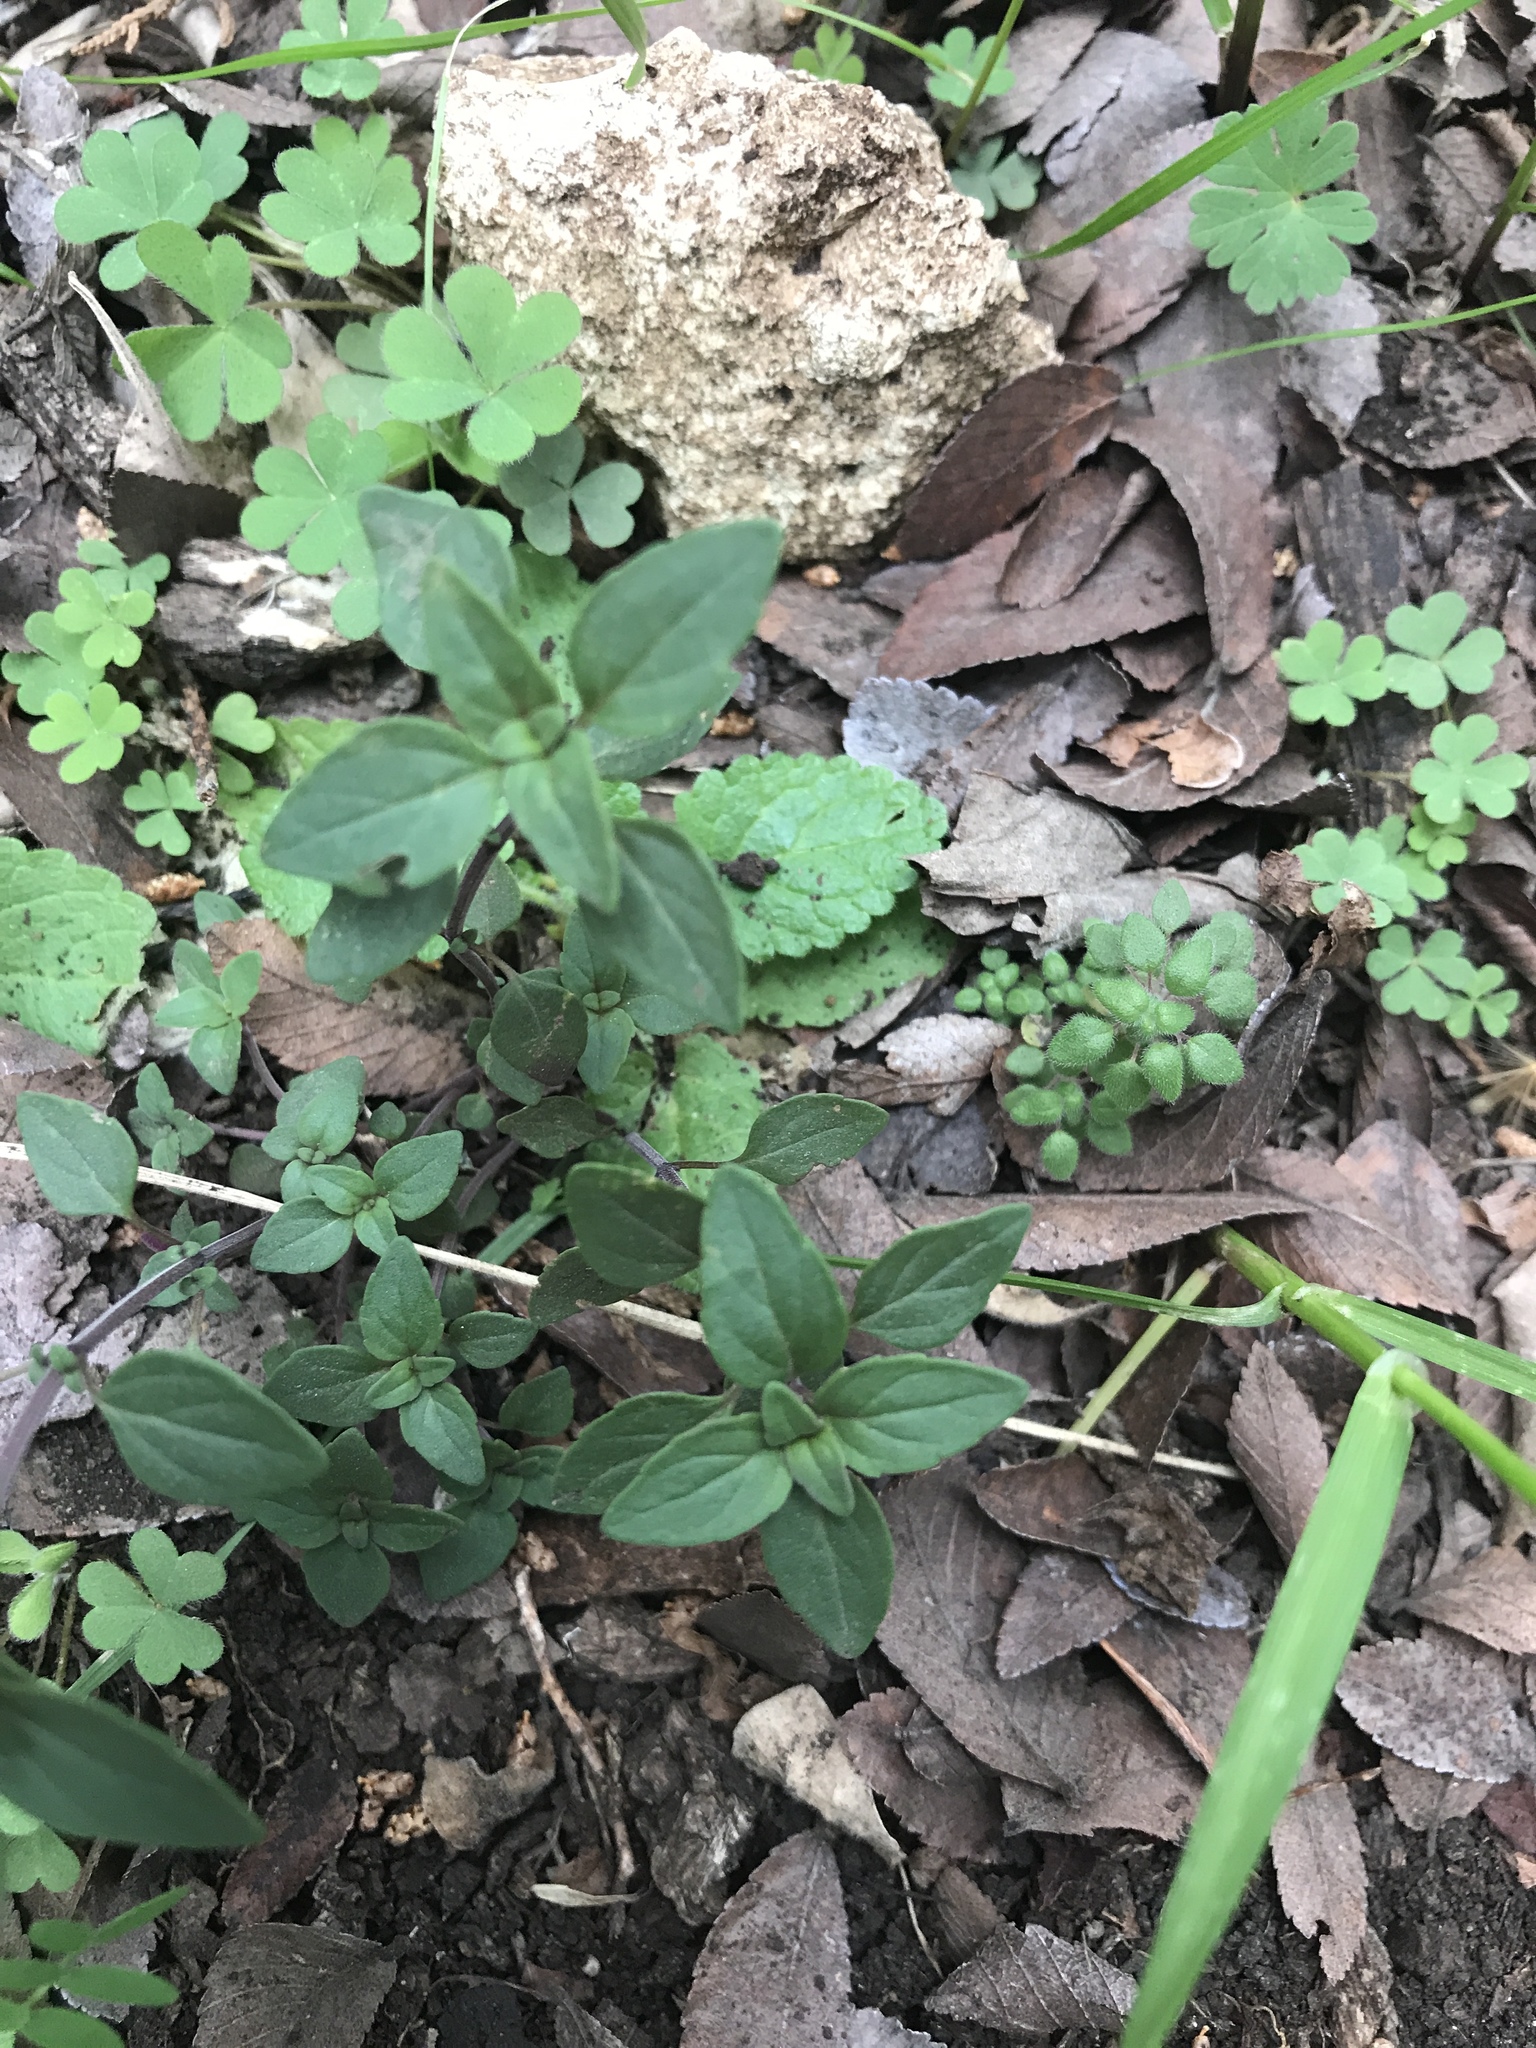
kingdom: Plantae
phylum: Tracheophyta
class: Magnoliopsida
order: Lamiales
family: Lamiaceae
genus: Hedeoma
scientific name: Hedeoma acinoides
